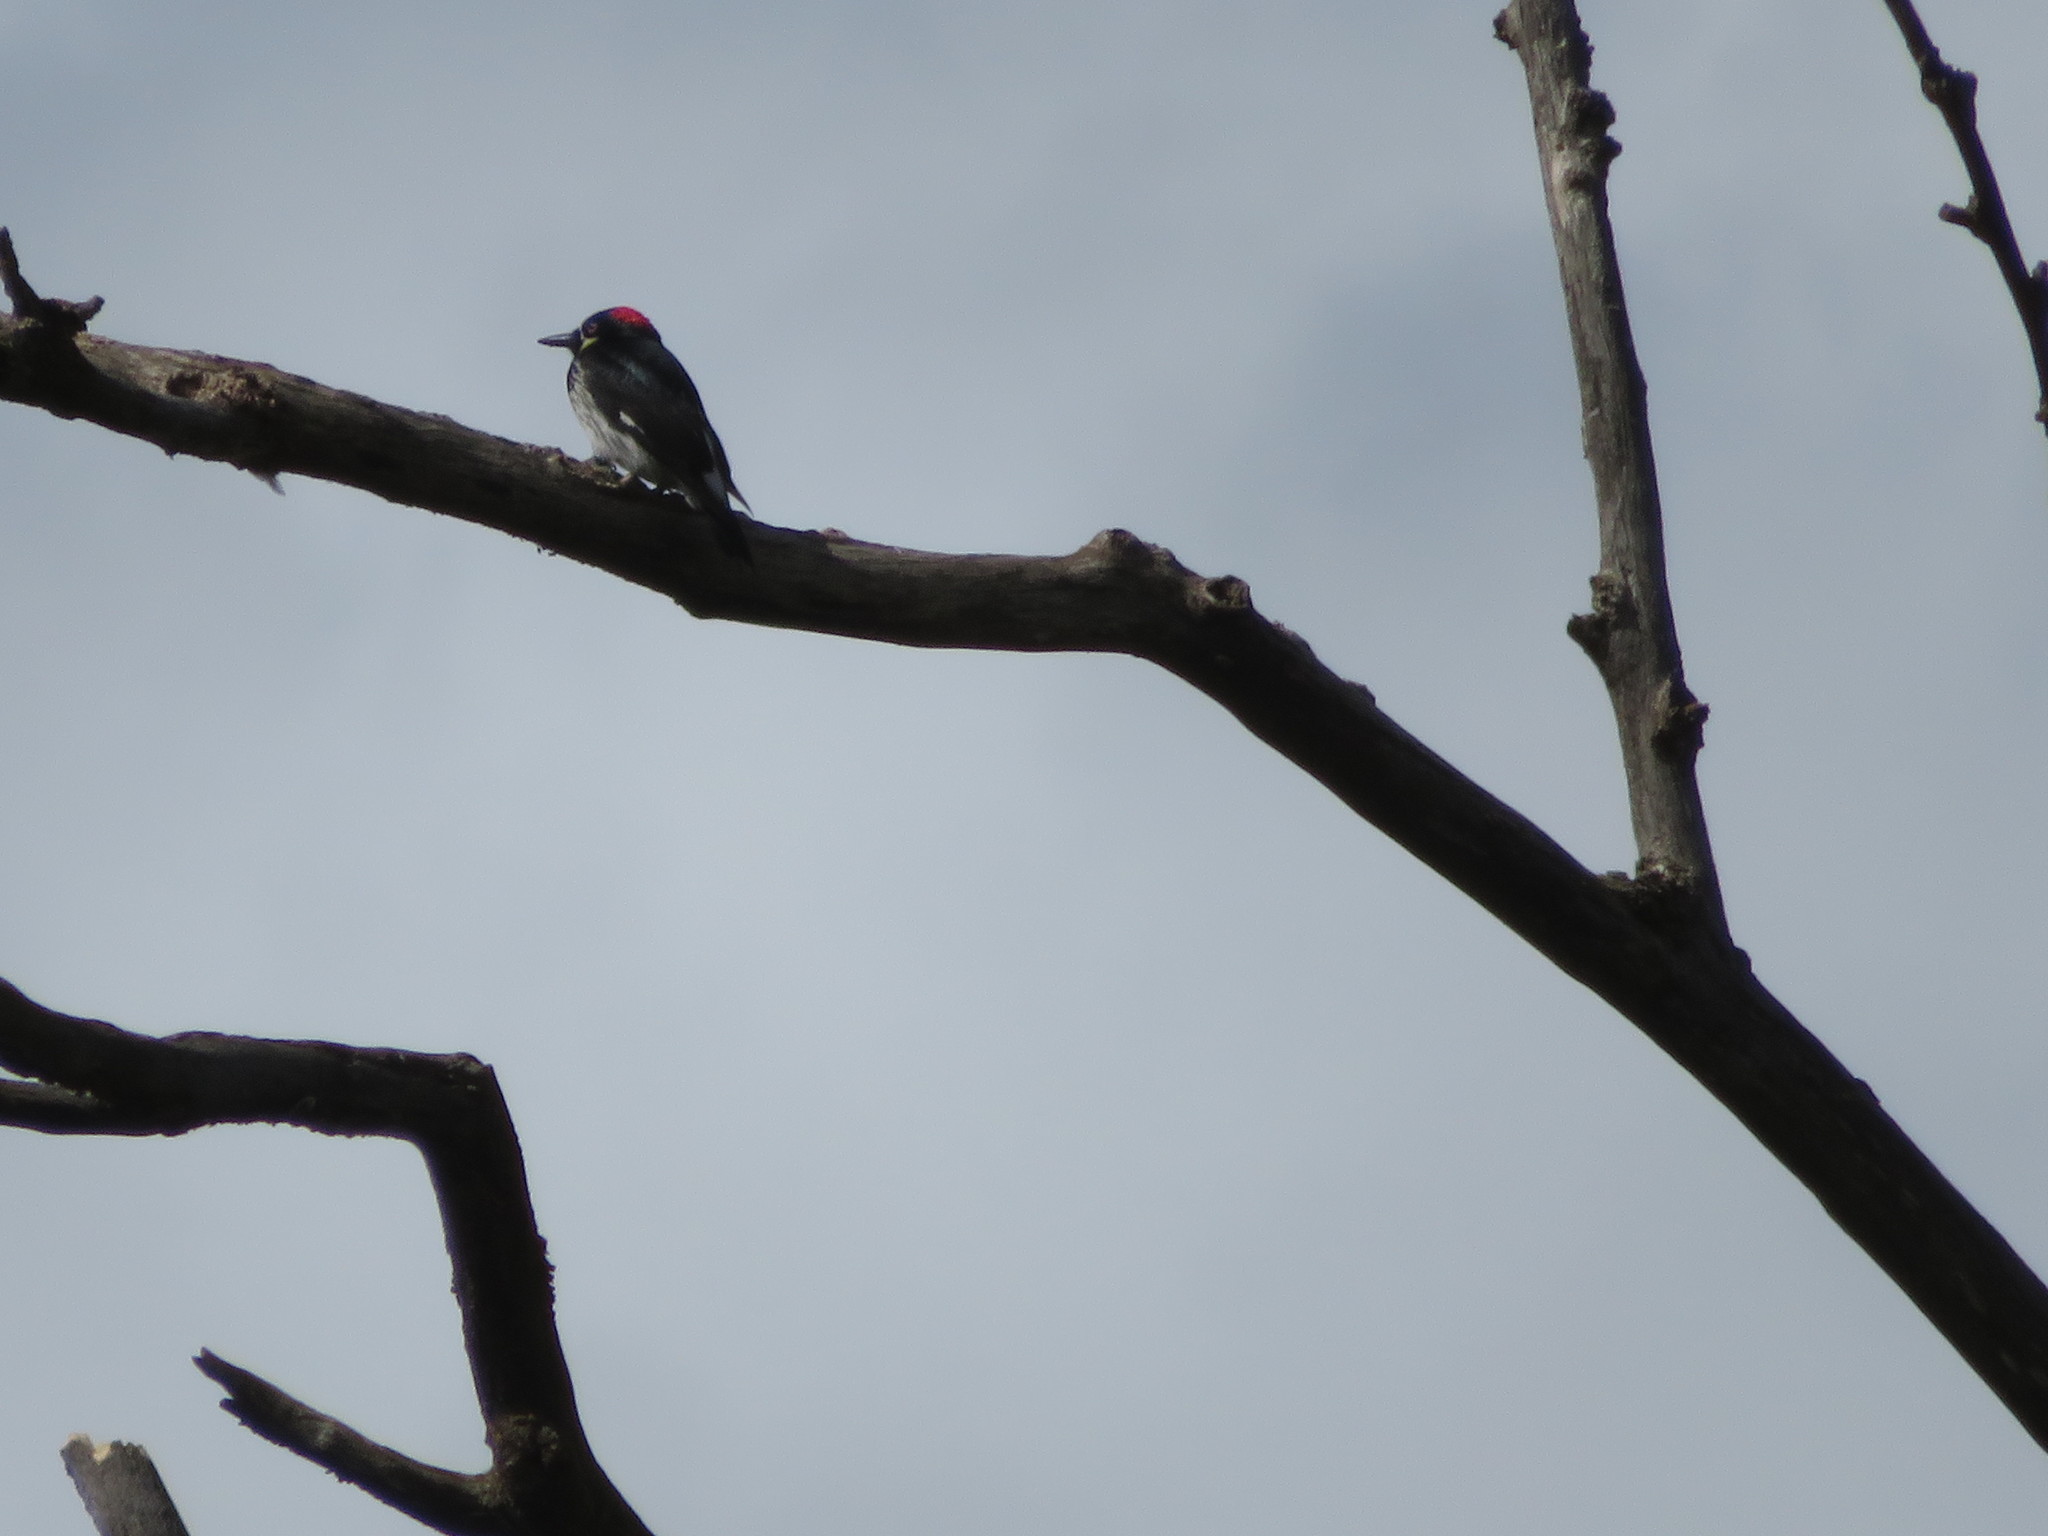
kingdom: Animalia
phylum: Chordata
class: Aves
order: Piciformes
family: Picidae
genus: Melanerpes
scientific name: Melanerpes formicivorus
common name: Acorn woodpecker
